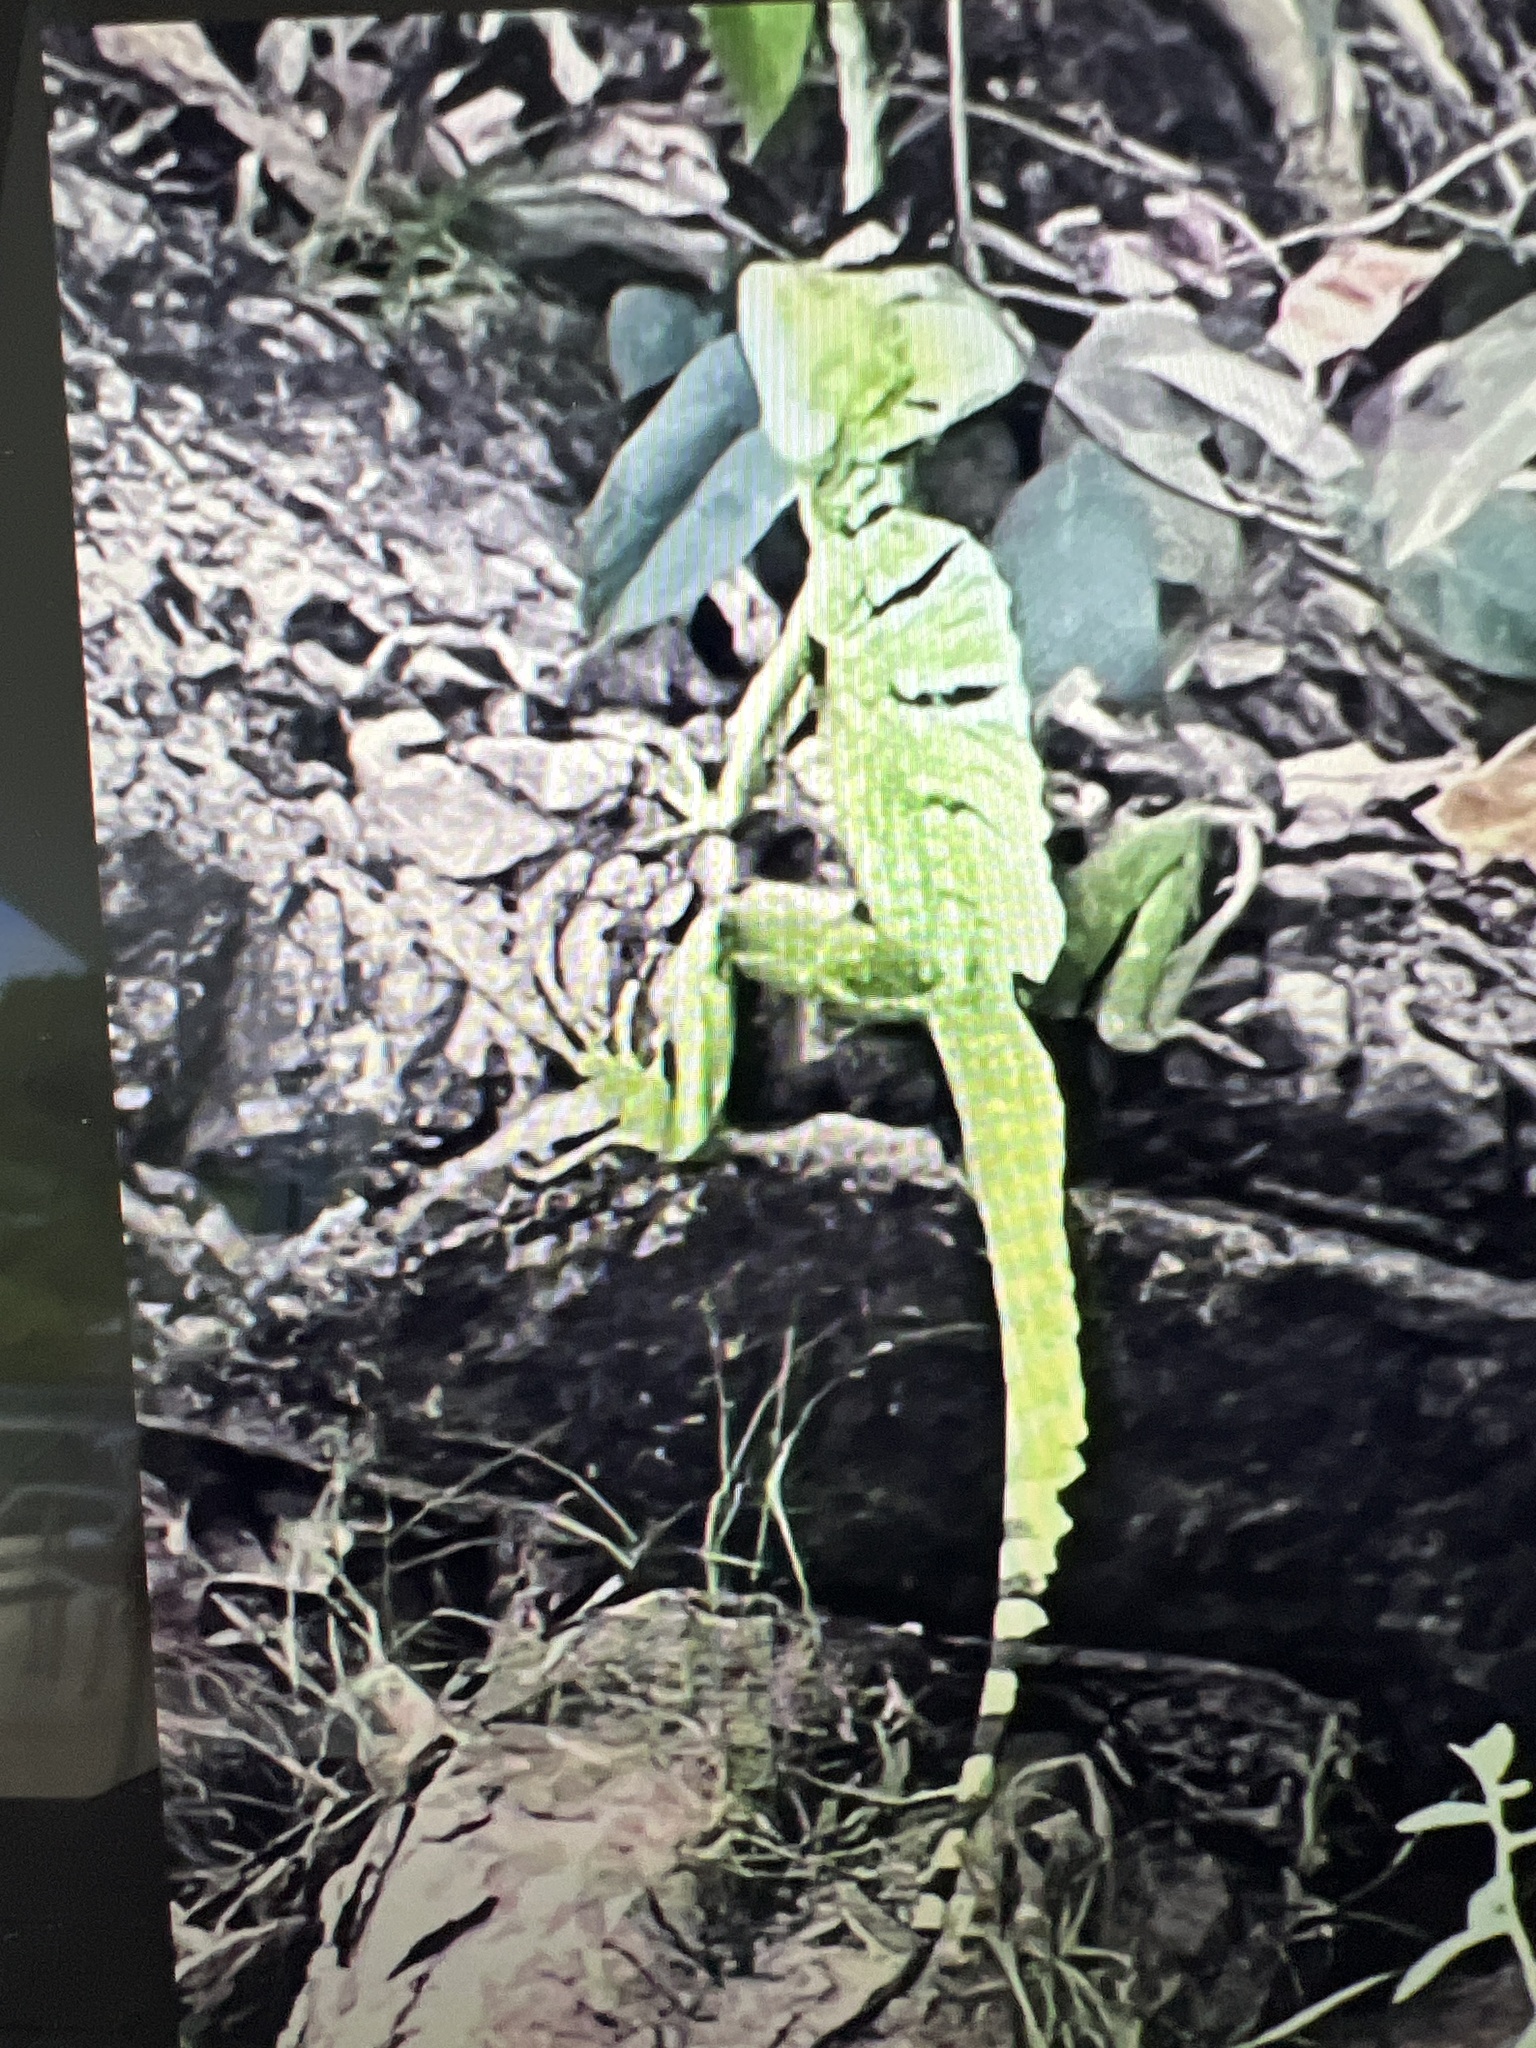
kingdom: Animalia
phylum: Chordata
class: Squamata
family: Corytophanidae
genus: Basiliscus
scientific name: Basiliscus plumifrons
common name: Green basilisk
